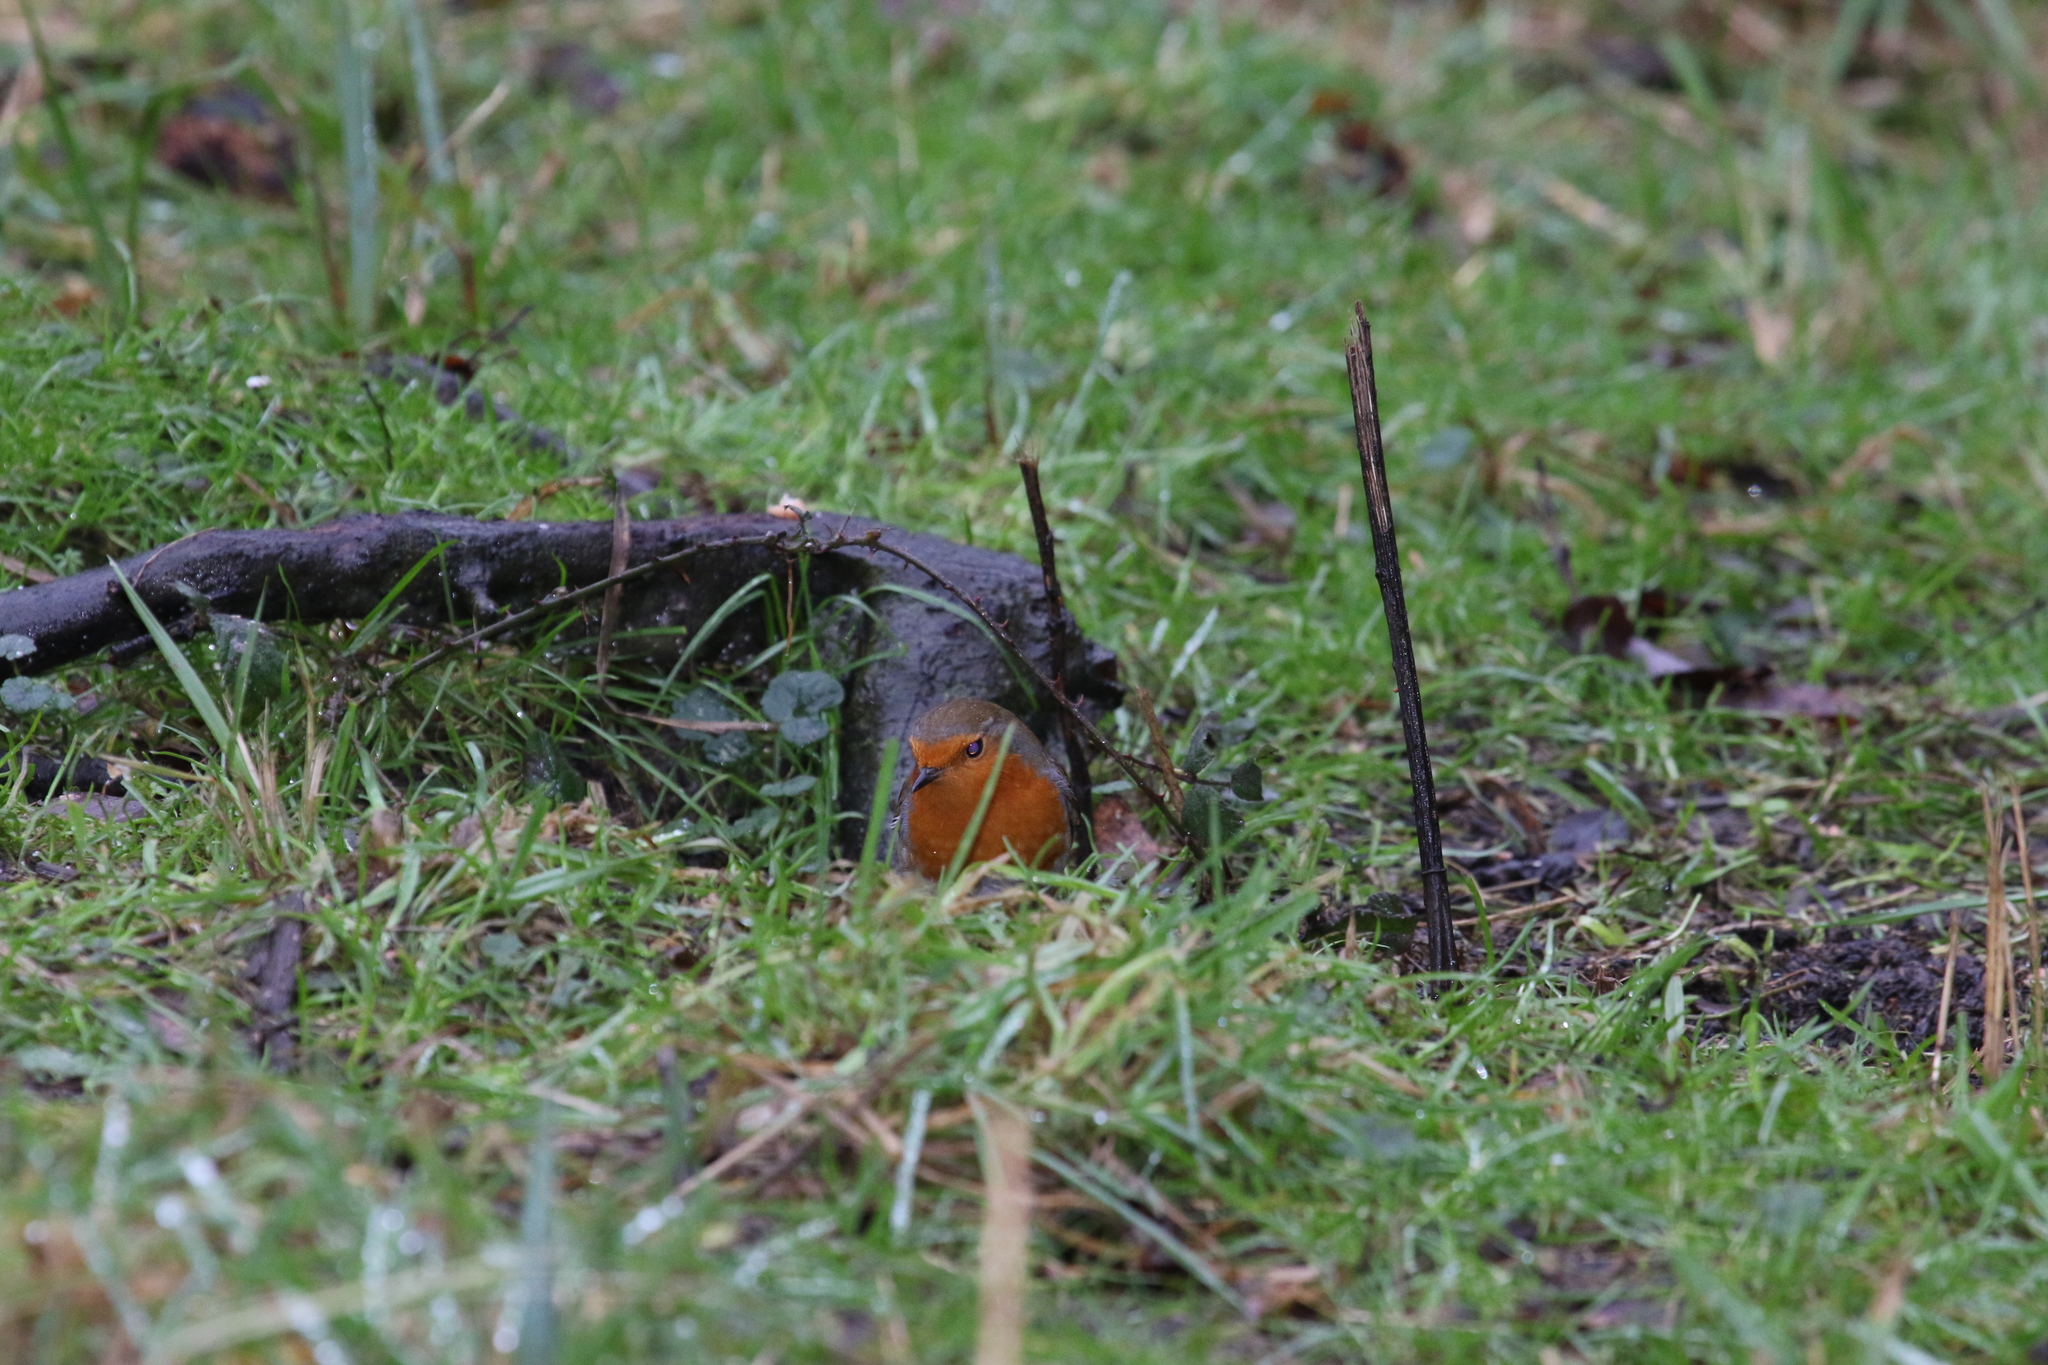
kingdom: Animalia
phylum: Chordata
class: Aves
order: Passeriformes
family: Muscicapidae
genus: Erithacus
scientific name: Erithacus rubecula
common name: European robin
